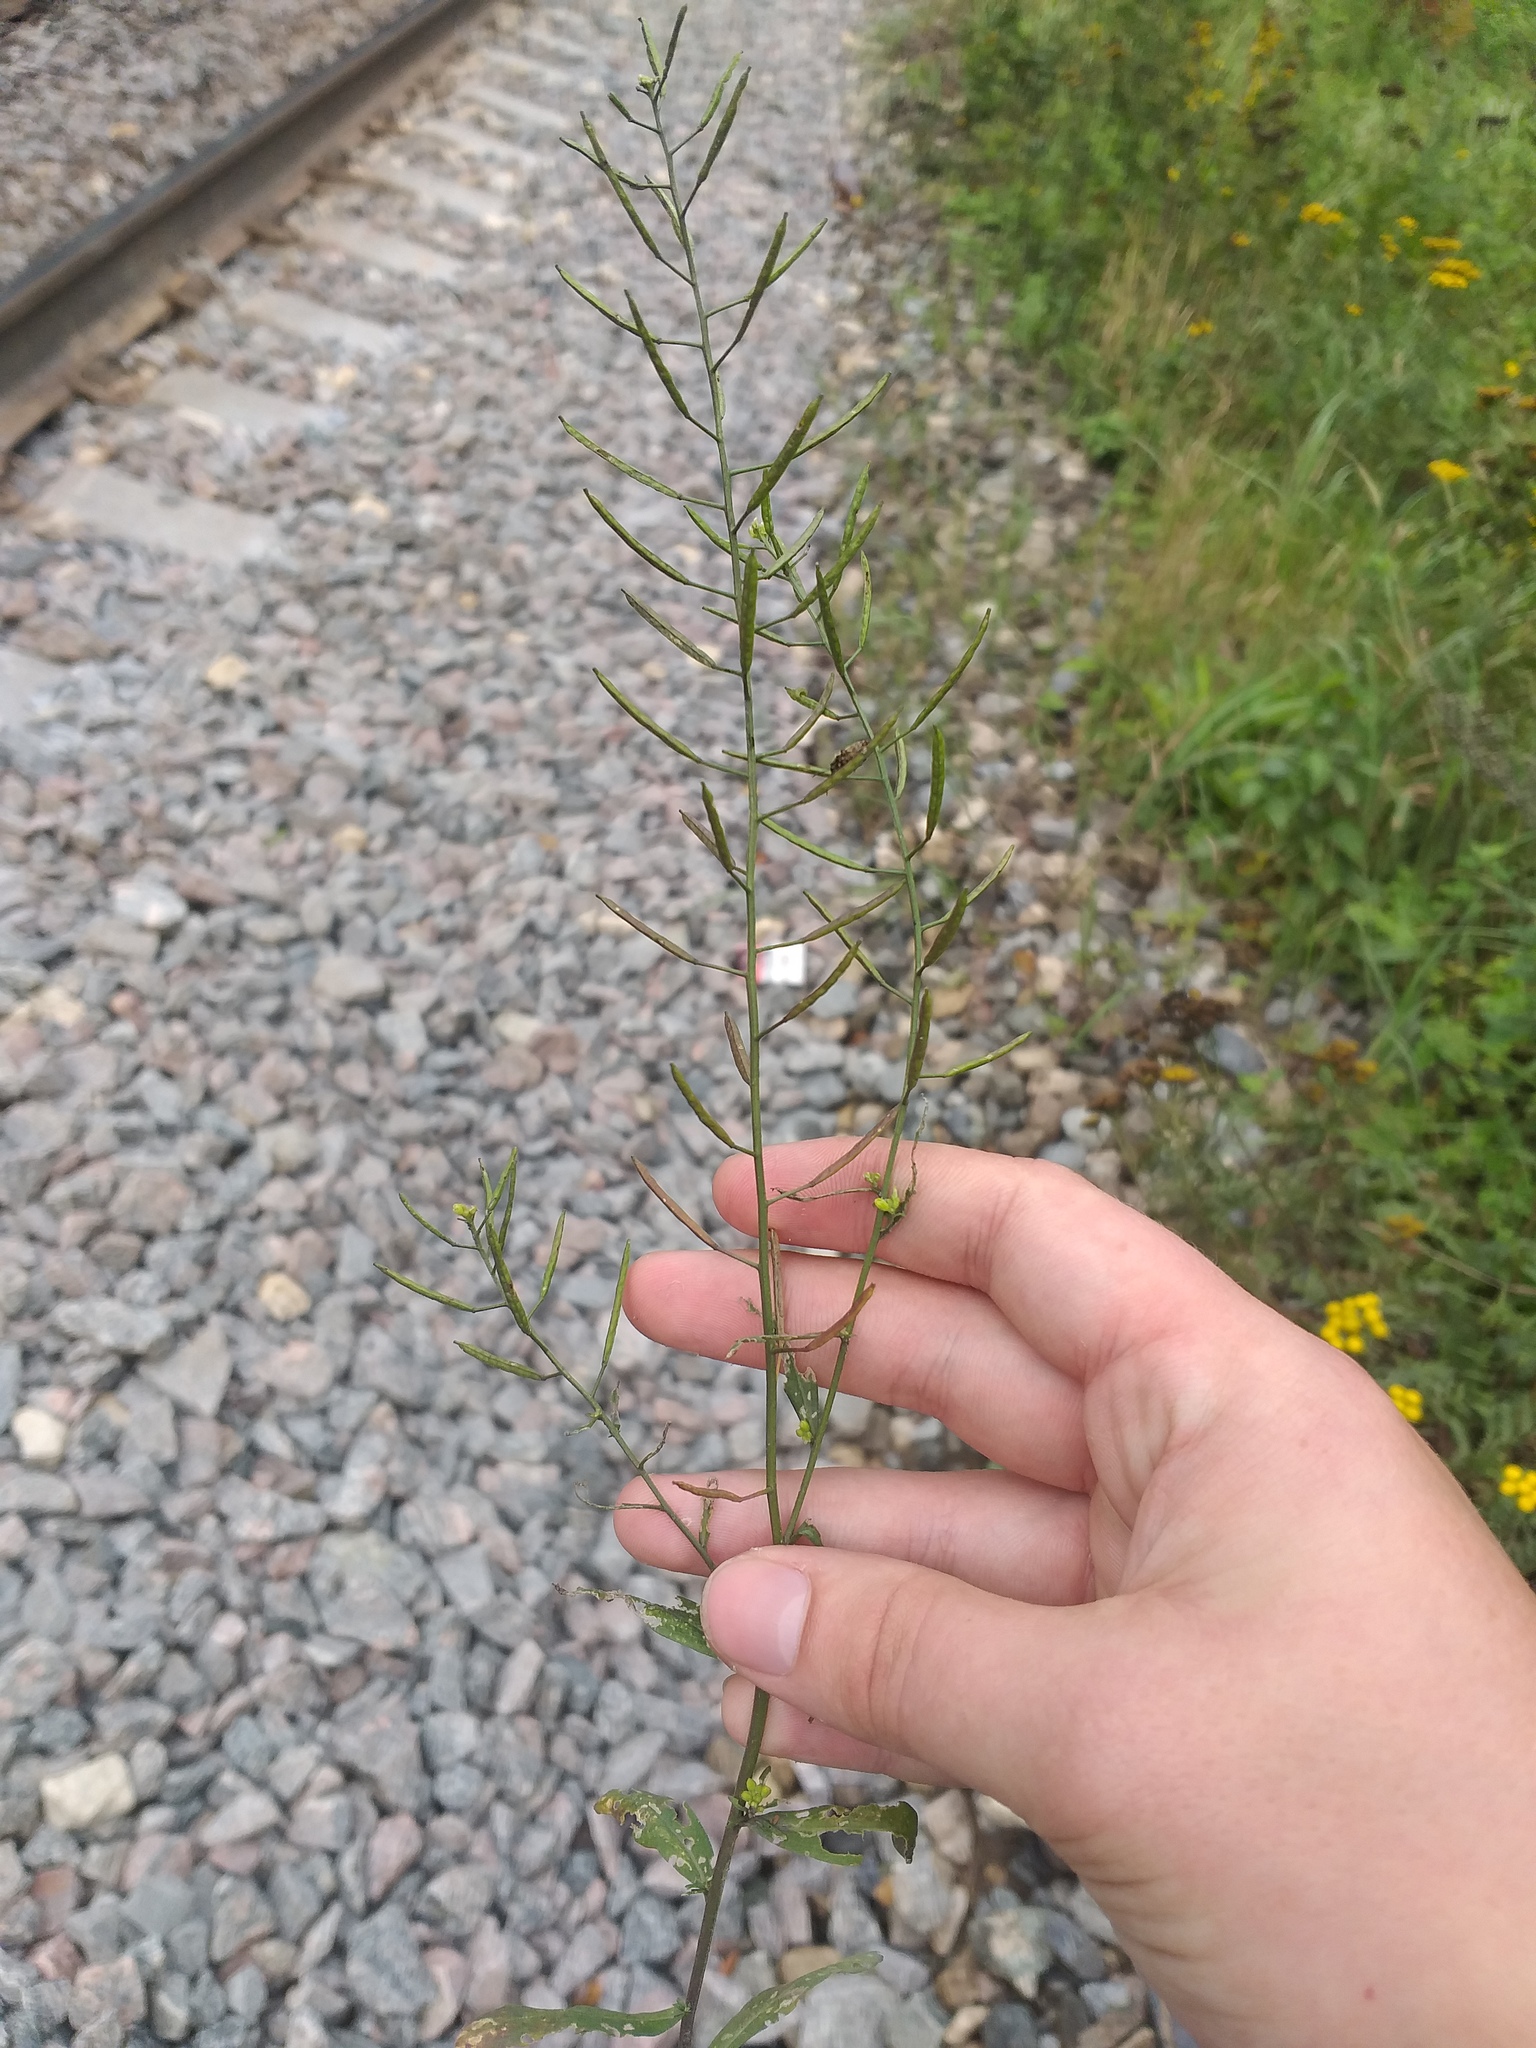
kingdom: Plantae
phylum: Tracheophyta
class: Magnoliopsida
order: Brassicales
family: Brassicaceae
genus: Erysimum
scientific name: Erysimum cheiranthoides
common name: Treacle mustard
